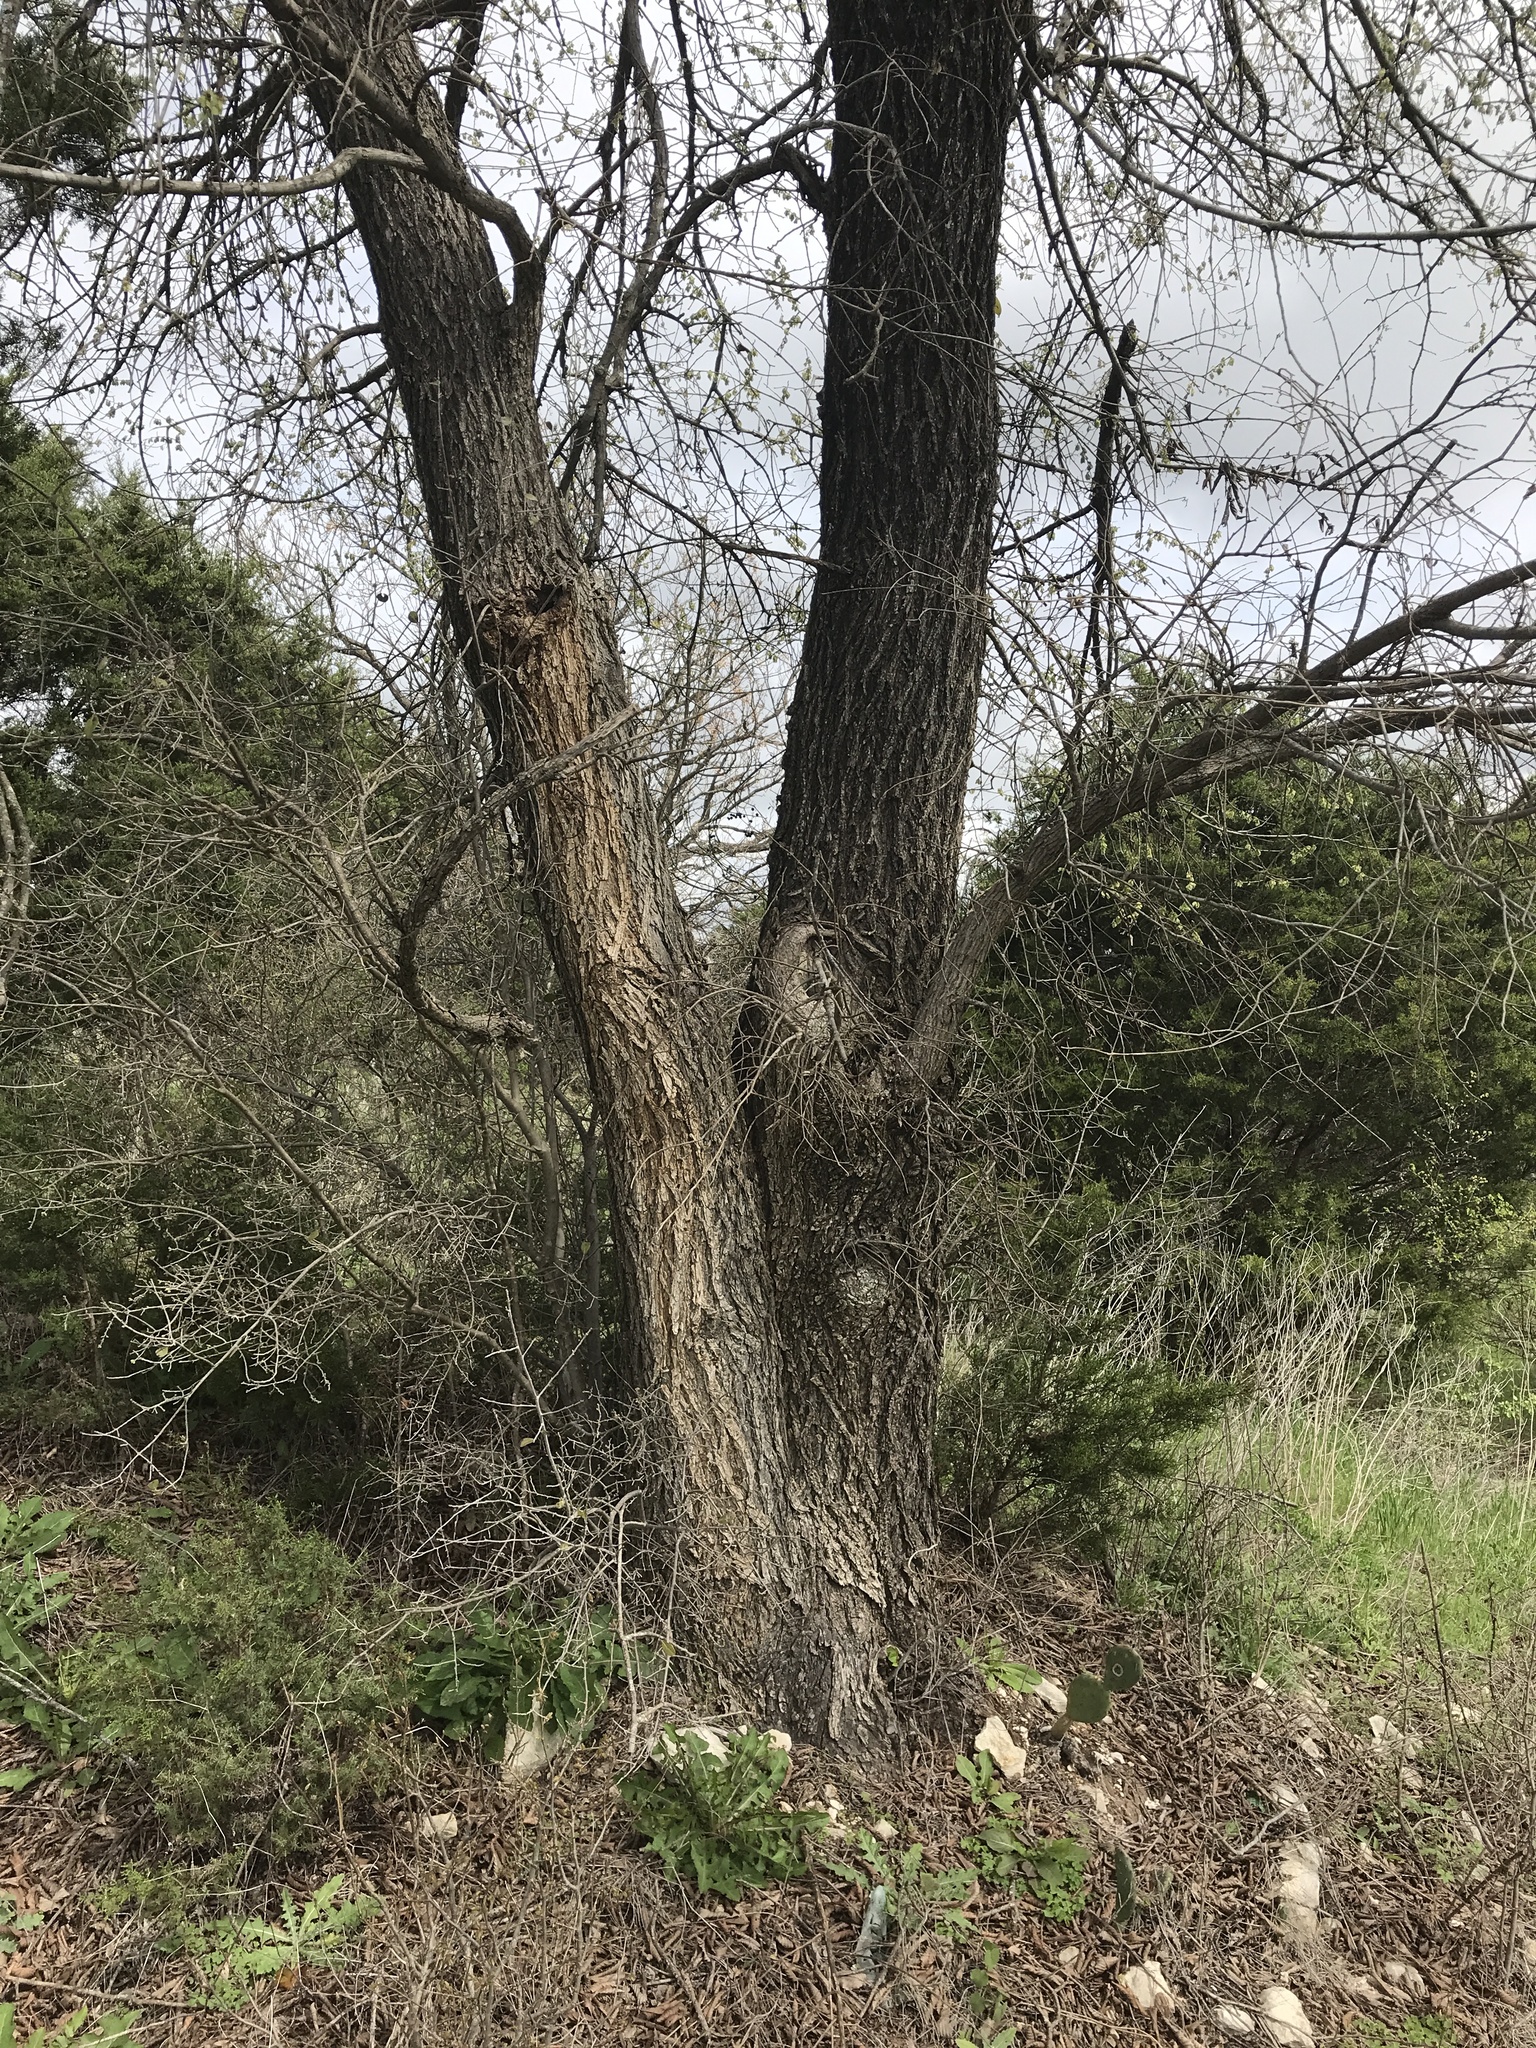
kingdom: Plantae
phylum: Tracheophyta
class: Magnoliopsida
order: Rosales
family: Ulmaceae
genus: Ulmus
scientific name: Ulmus americana
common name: American elm
